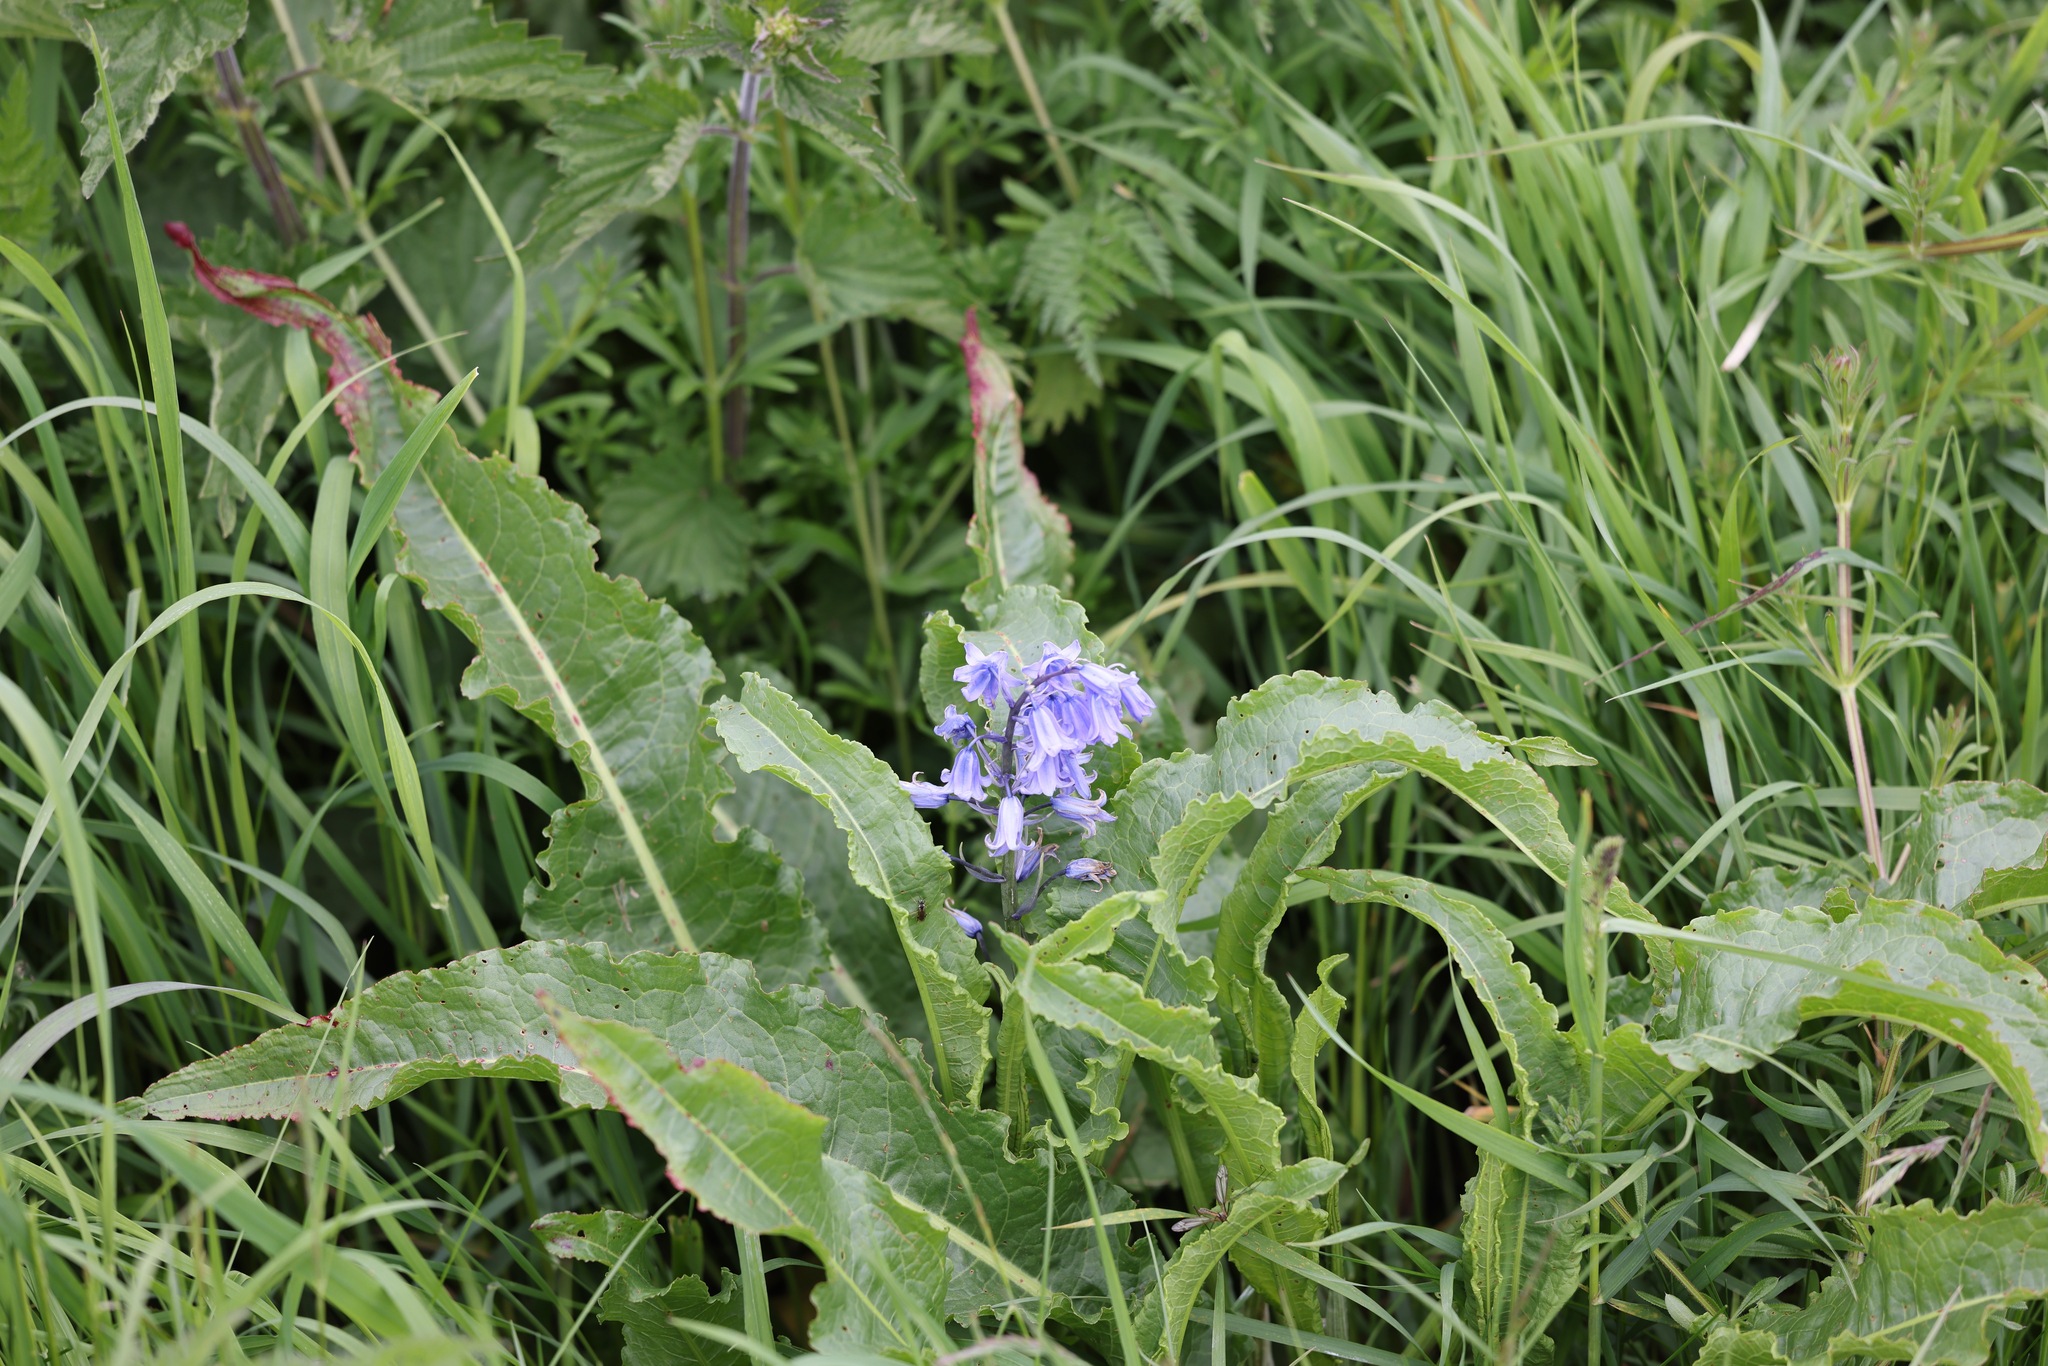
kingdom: Plantae
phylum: Tracheophyta
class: Liliopsida
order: Asparagales
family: Asparagaceae
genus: Hyacinthoides
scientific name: Hyacinthoides hispanica
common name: Spanish bluebell
